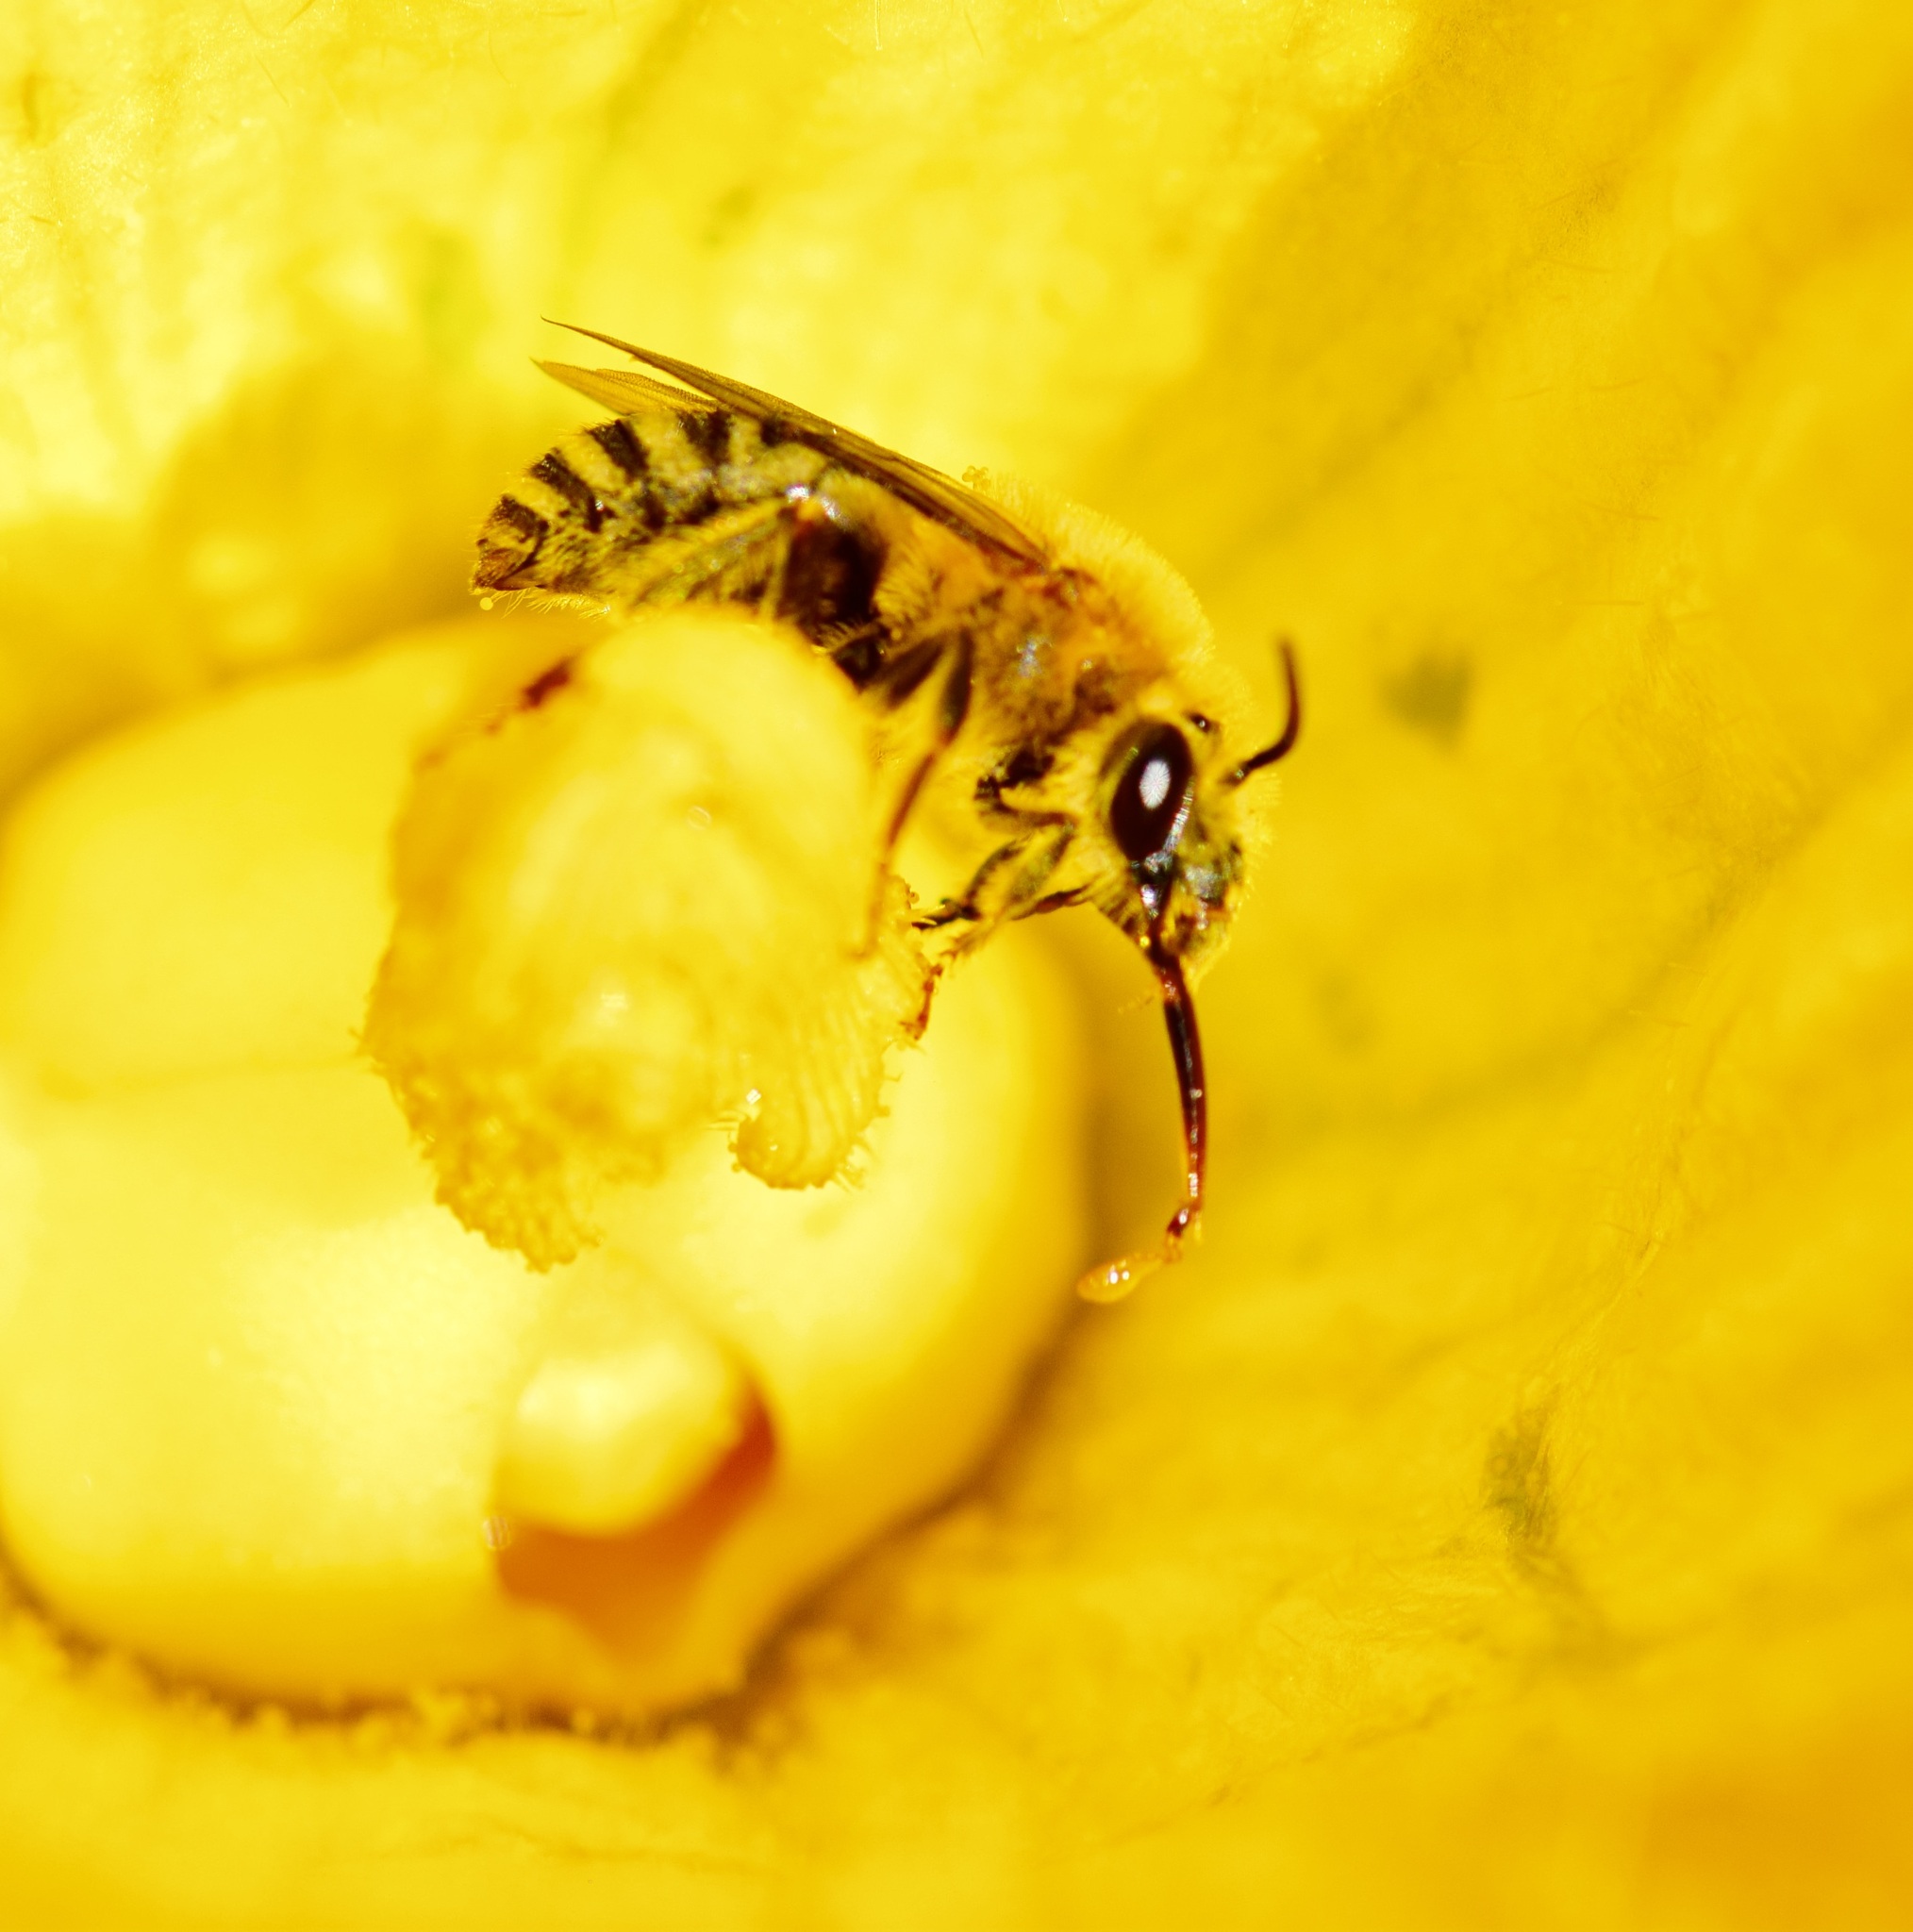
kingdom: Animalia
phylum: Arthropoda
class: Insecta
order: Hymenoptera
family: Apidae
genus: Peponapis
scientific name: Peponapis pruinosa
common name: Pruinose squash bee
